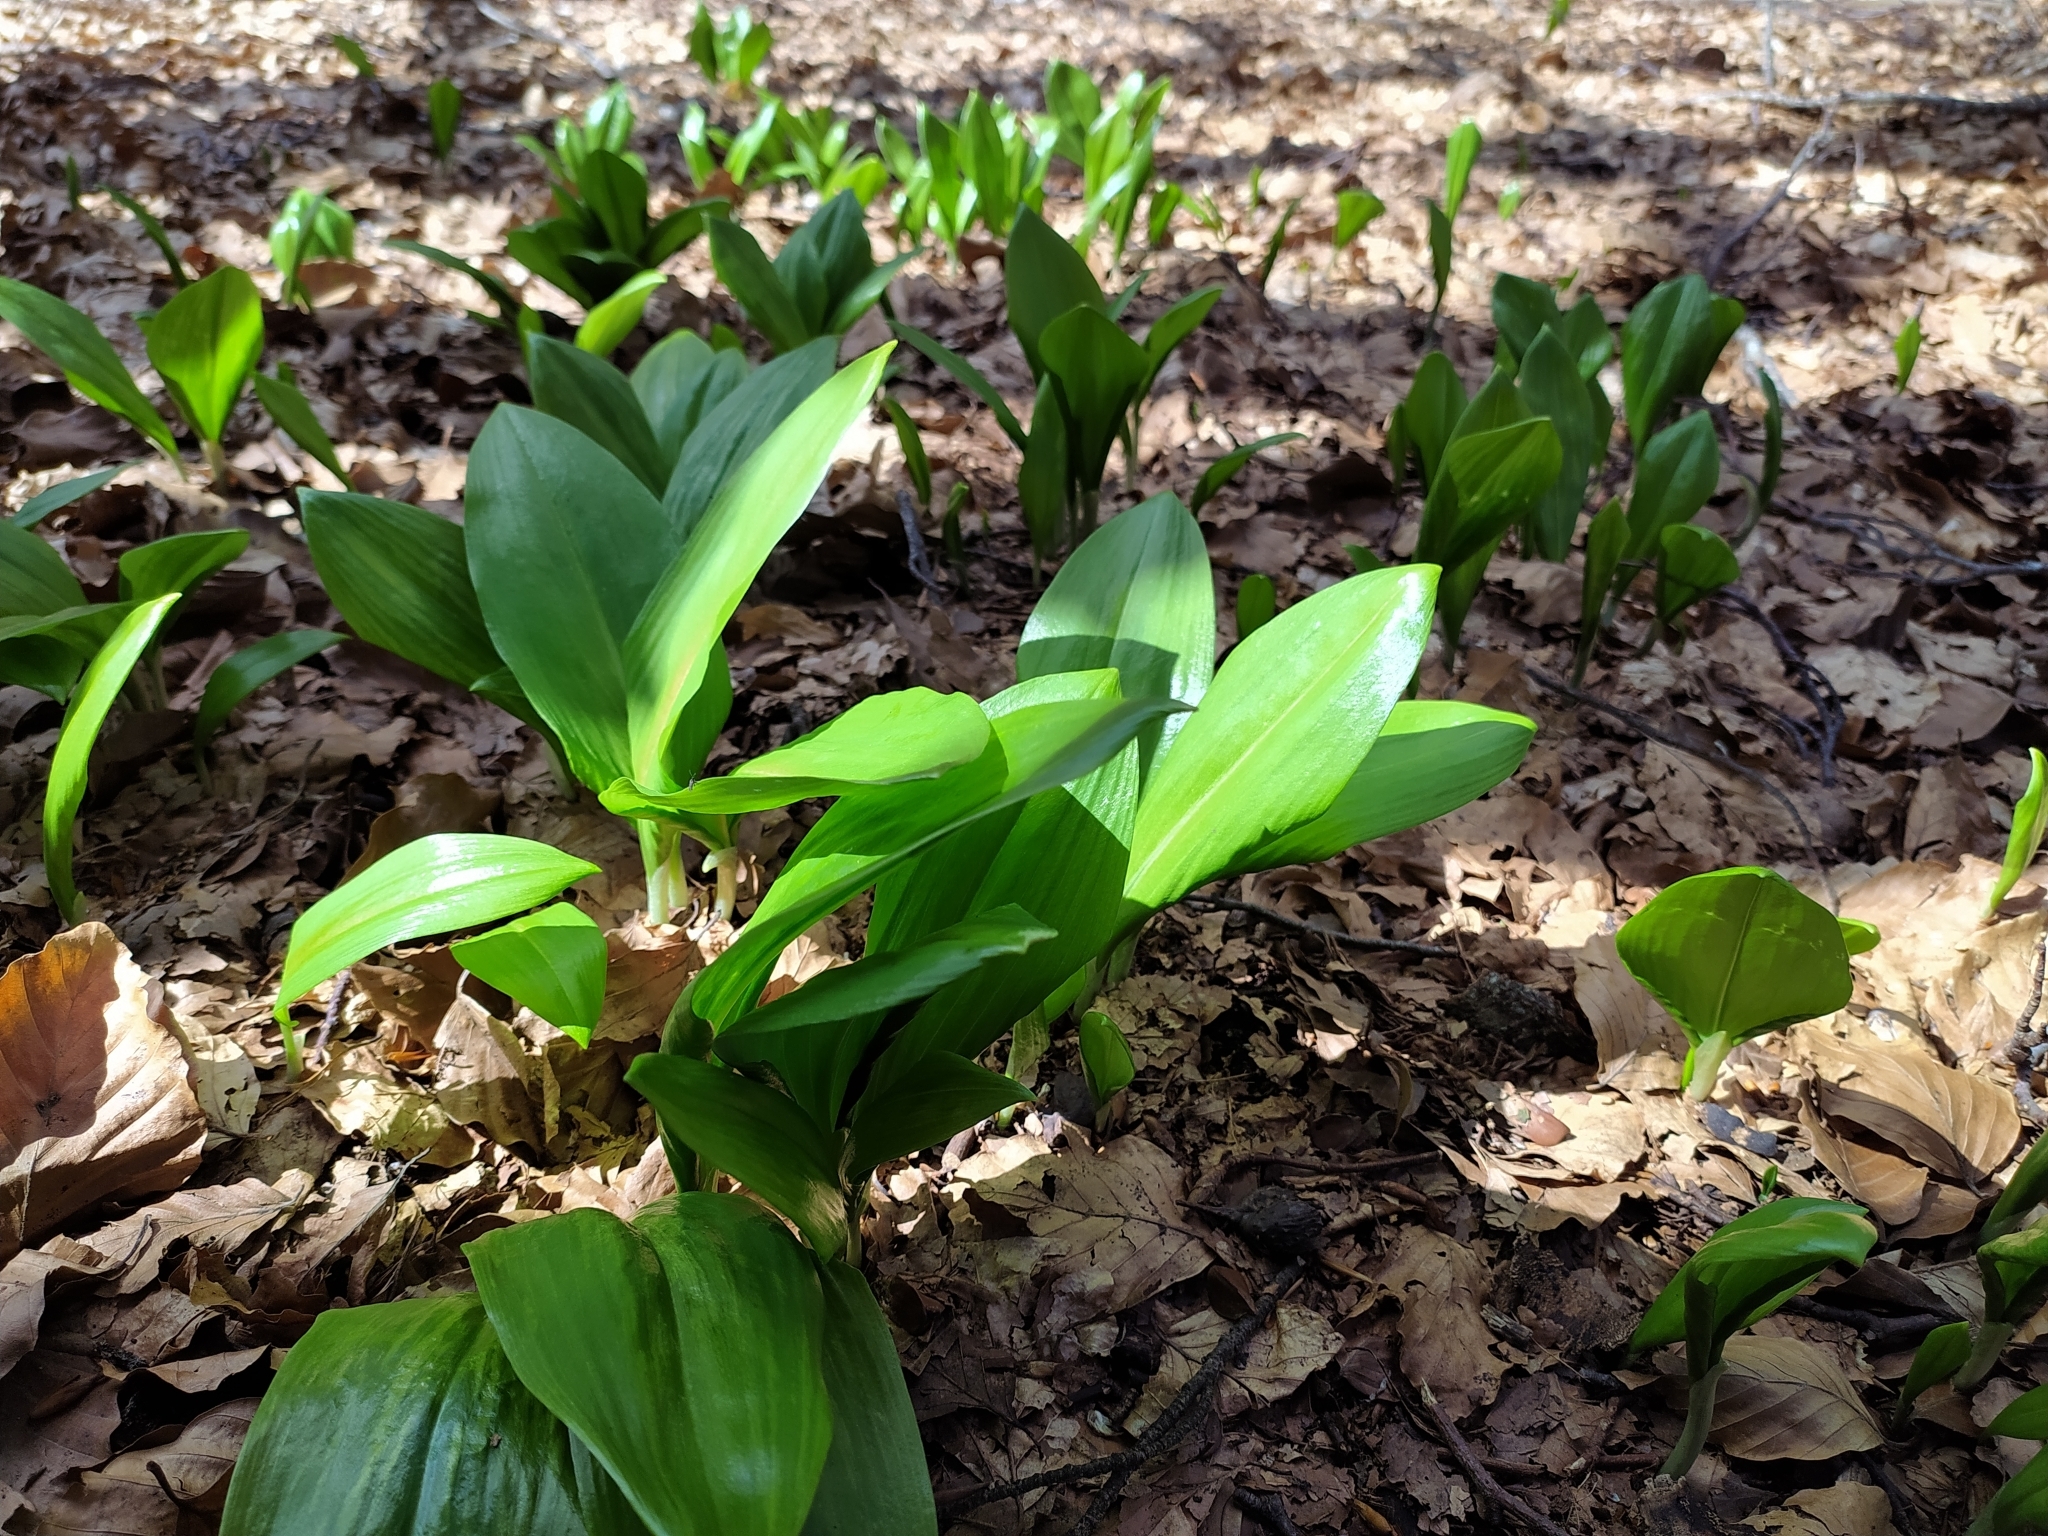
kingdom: Plantae
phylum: Tracheophyta
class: Liliopsida
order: Asparagales
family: Amaryllidaceae
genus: Allium
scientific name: Allium ursinum
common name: Ramsons
